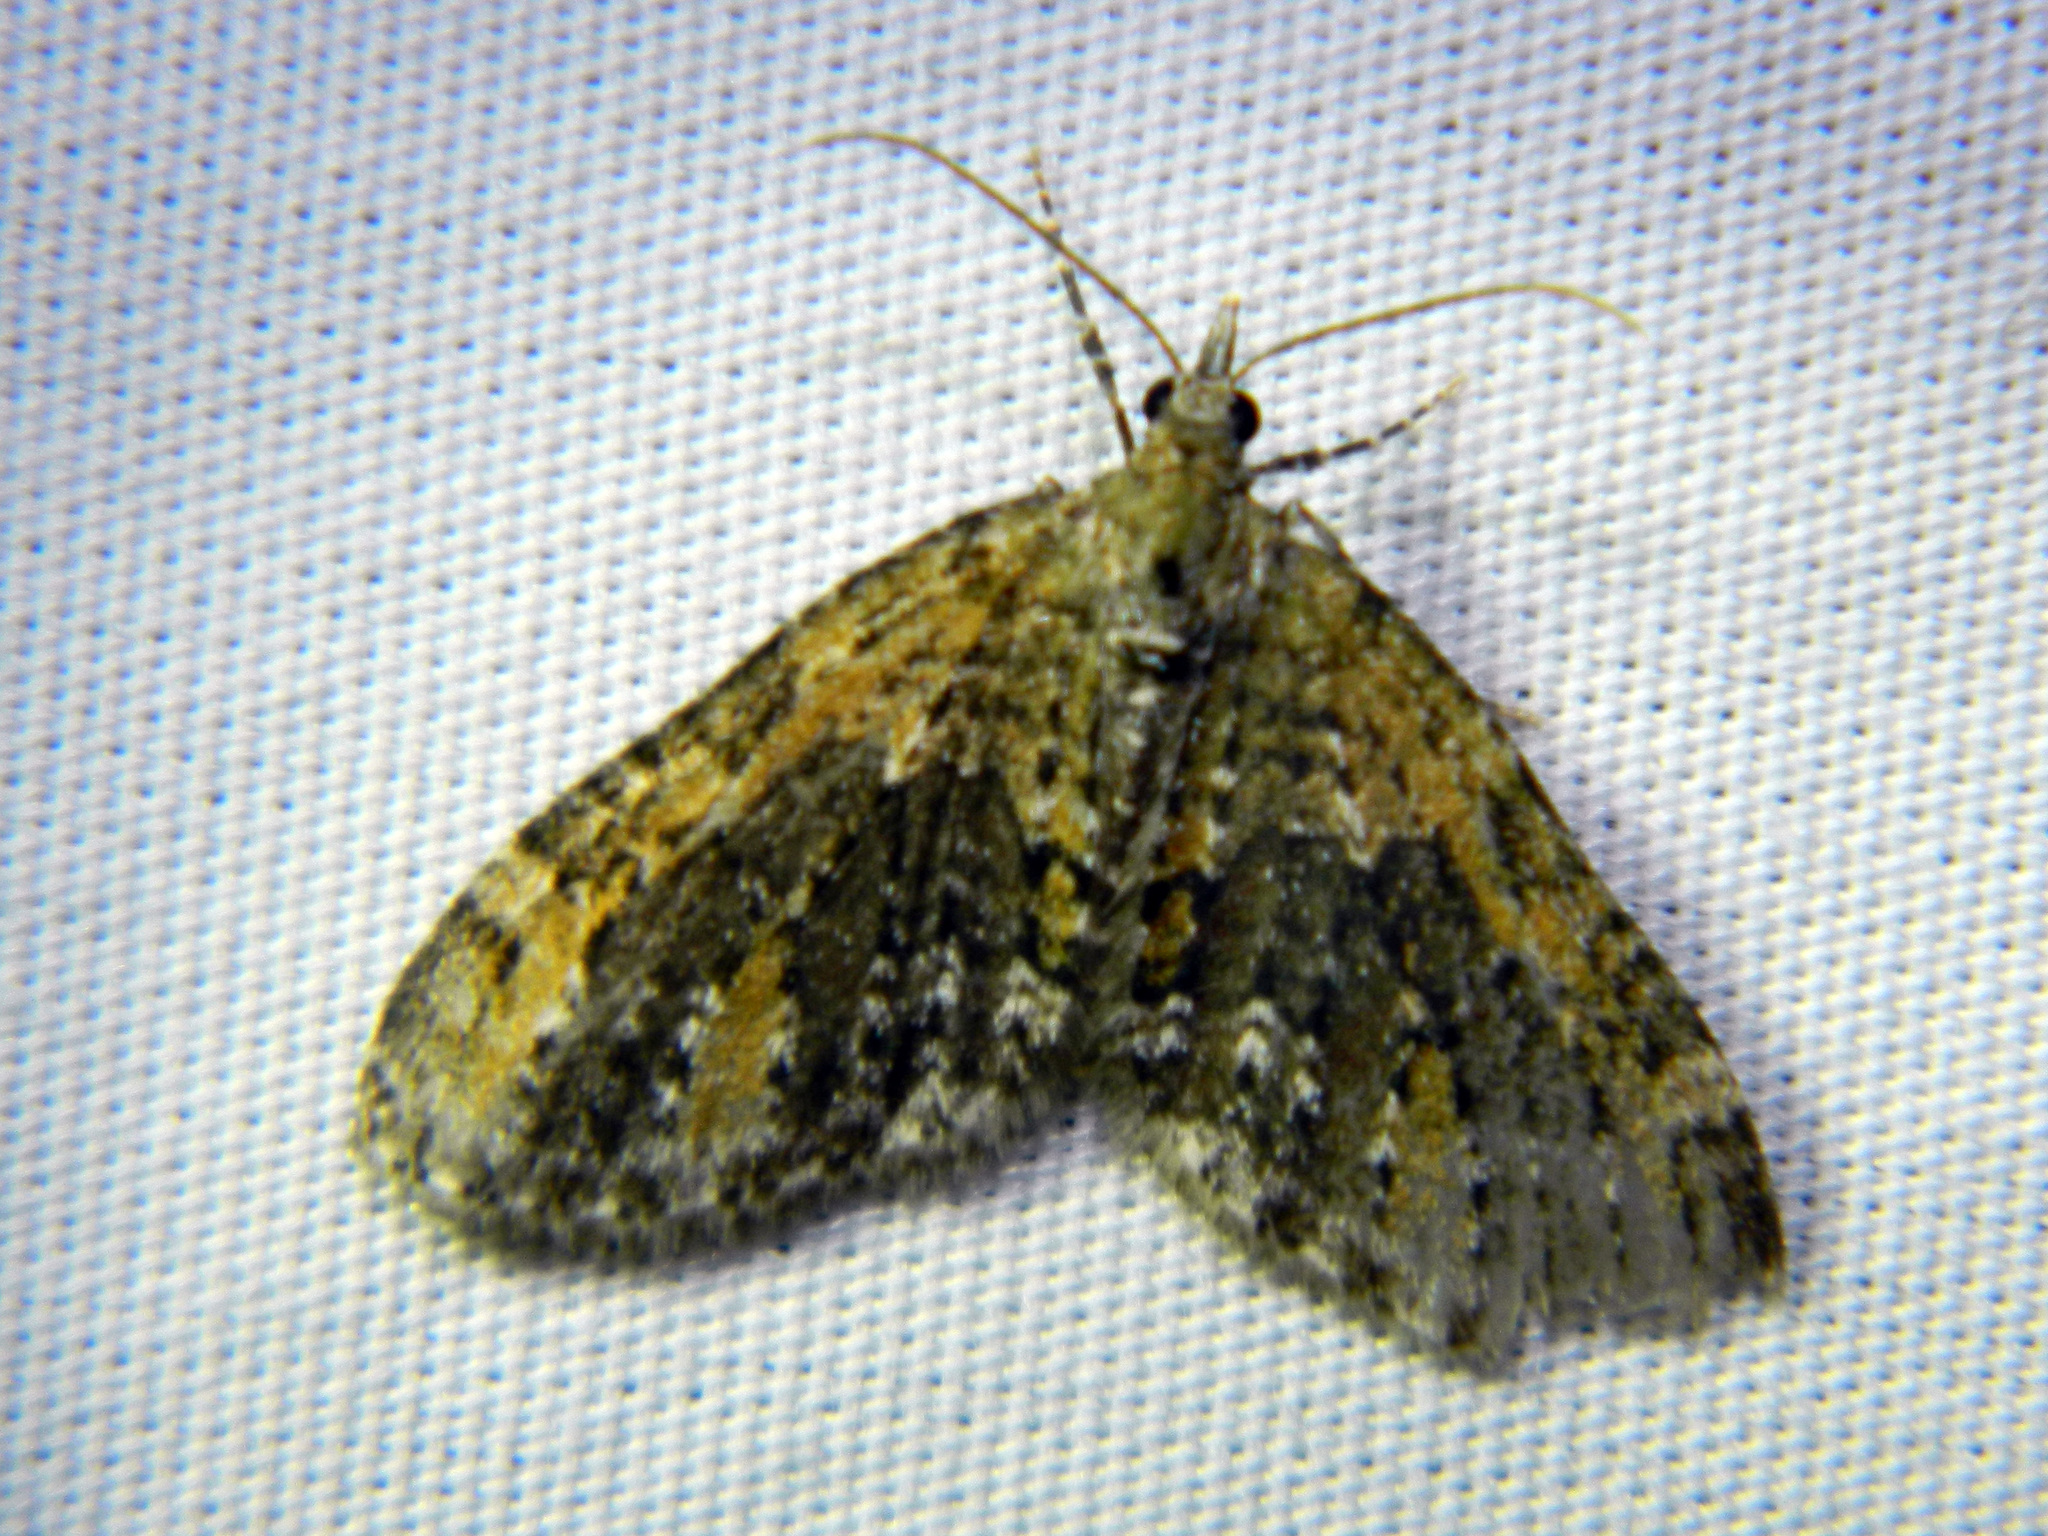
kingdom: Animalia
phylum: Arthropoda
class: Insecta
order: Lepidoptera
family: Geometridae
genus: Acasis
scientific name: Acasis viridata
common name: Olive-and-black carpet moth
